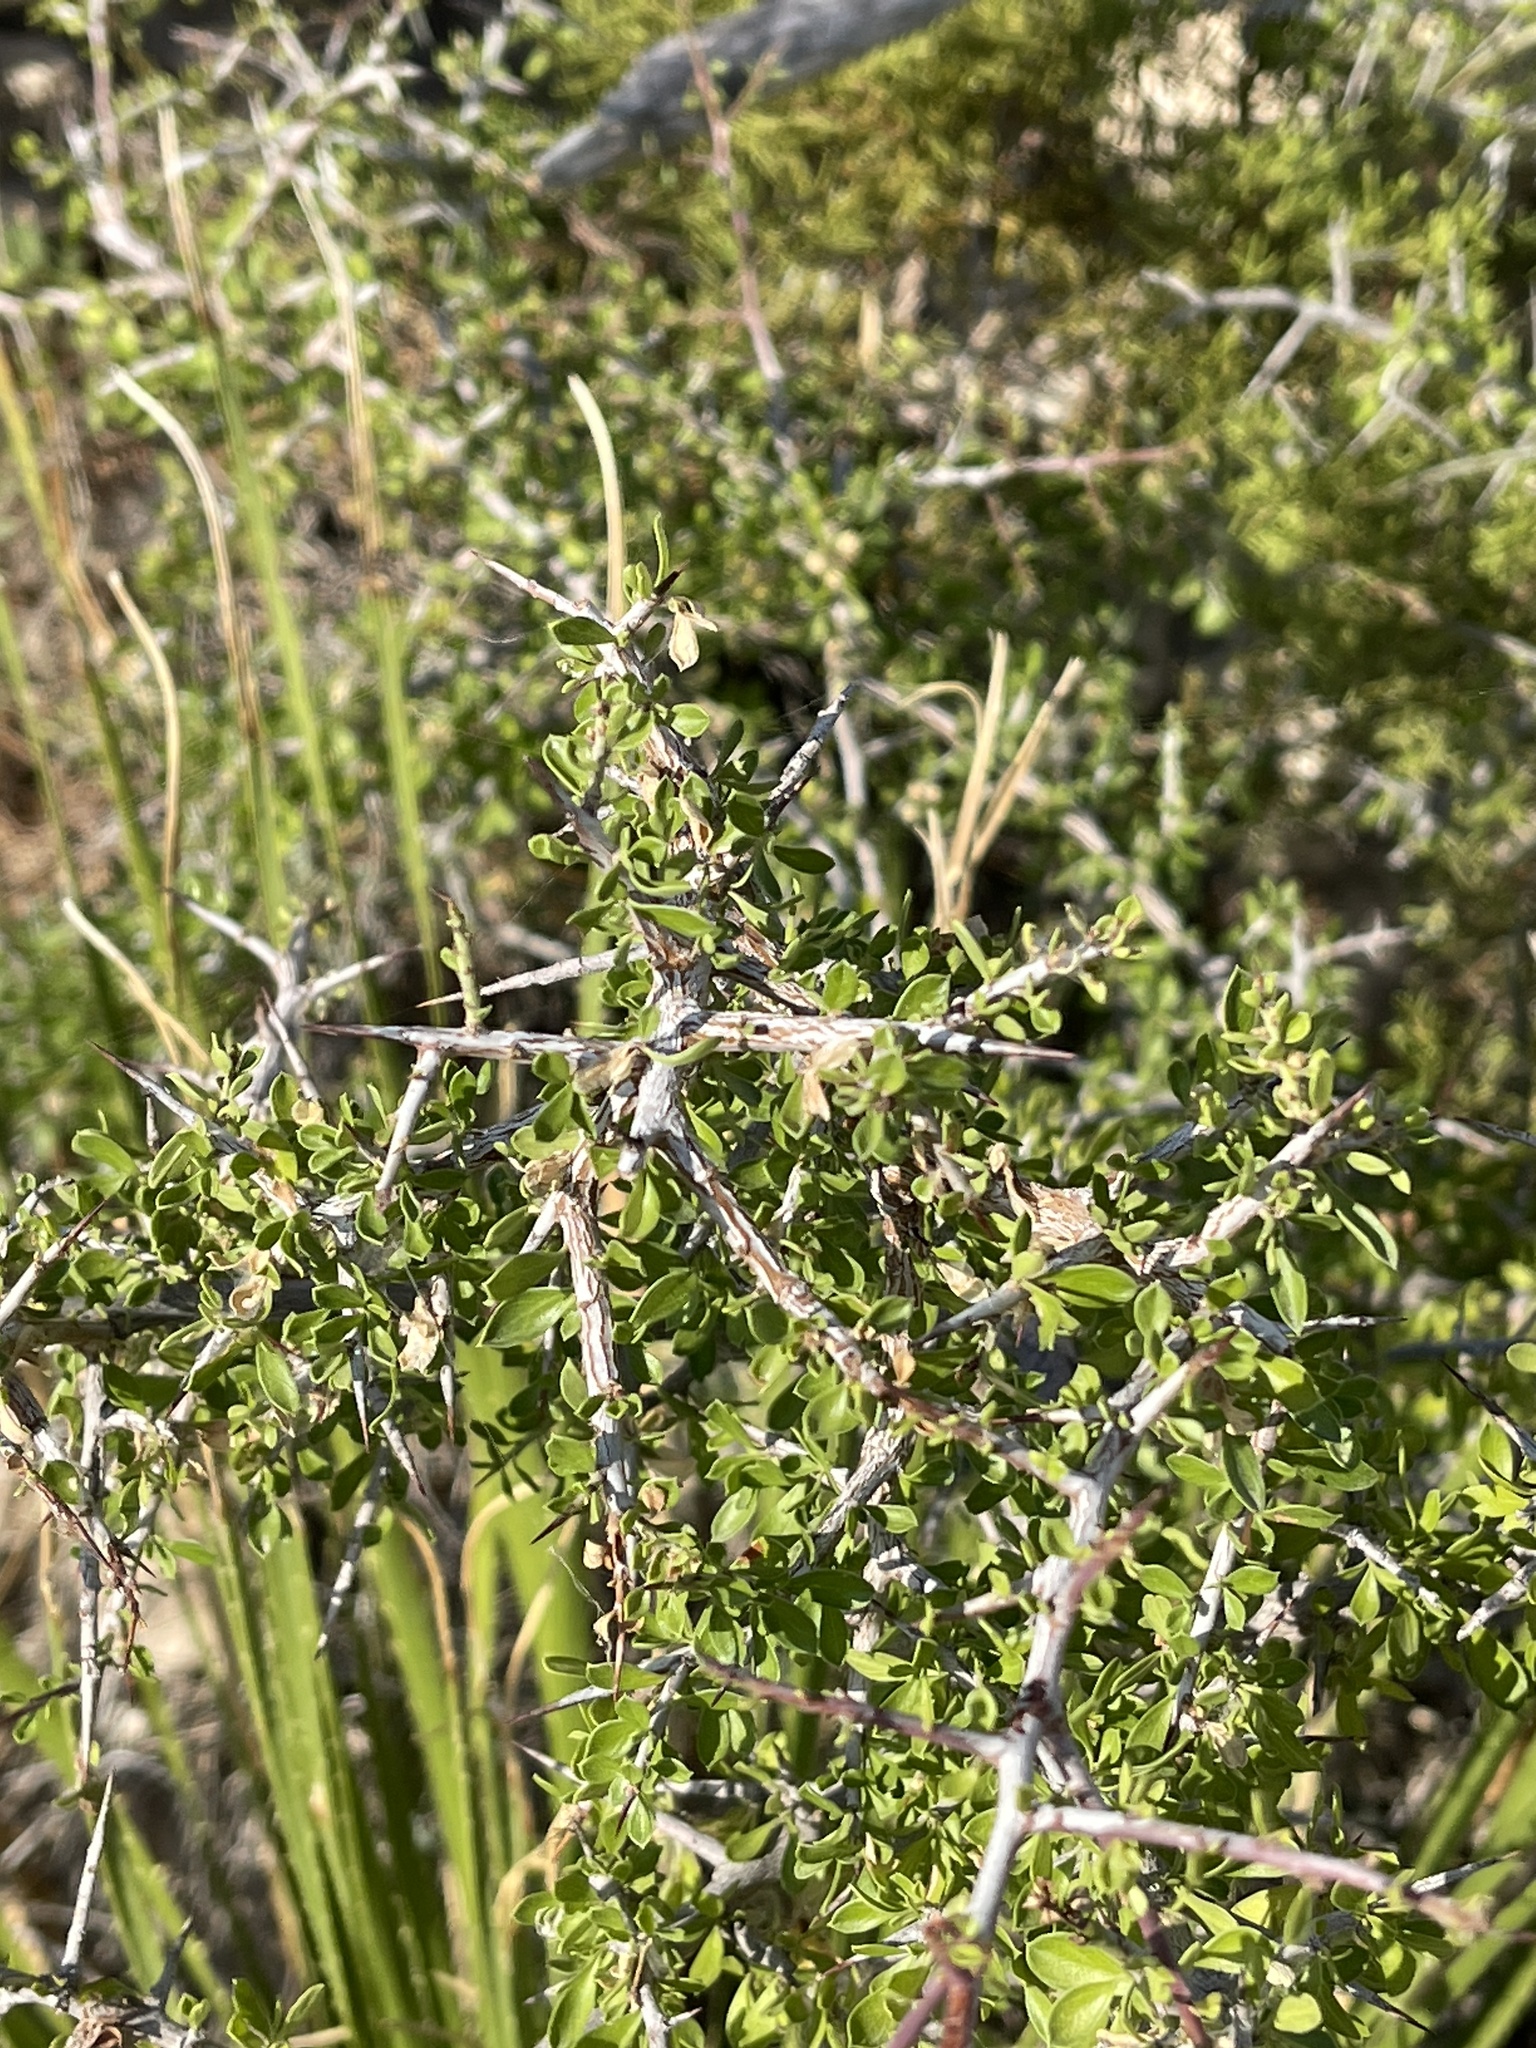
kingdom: Plantae
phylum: Tracheophyta
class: Magnoliopsida
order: Rosales
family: Rhamnaceae
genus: Condalia
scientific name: Condalia viridis
